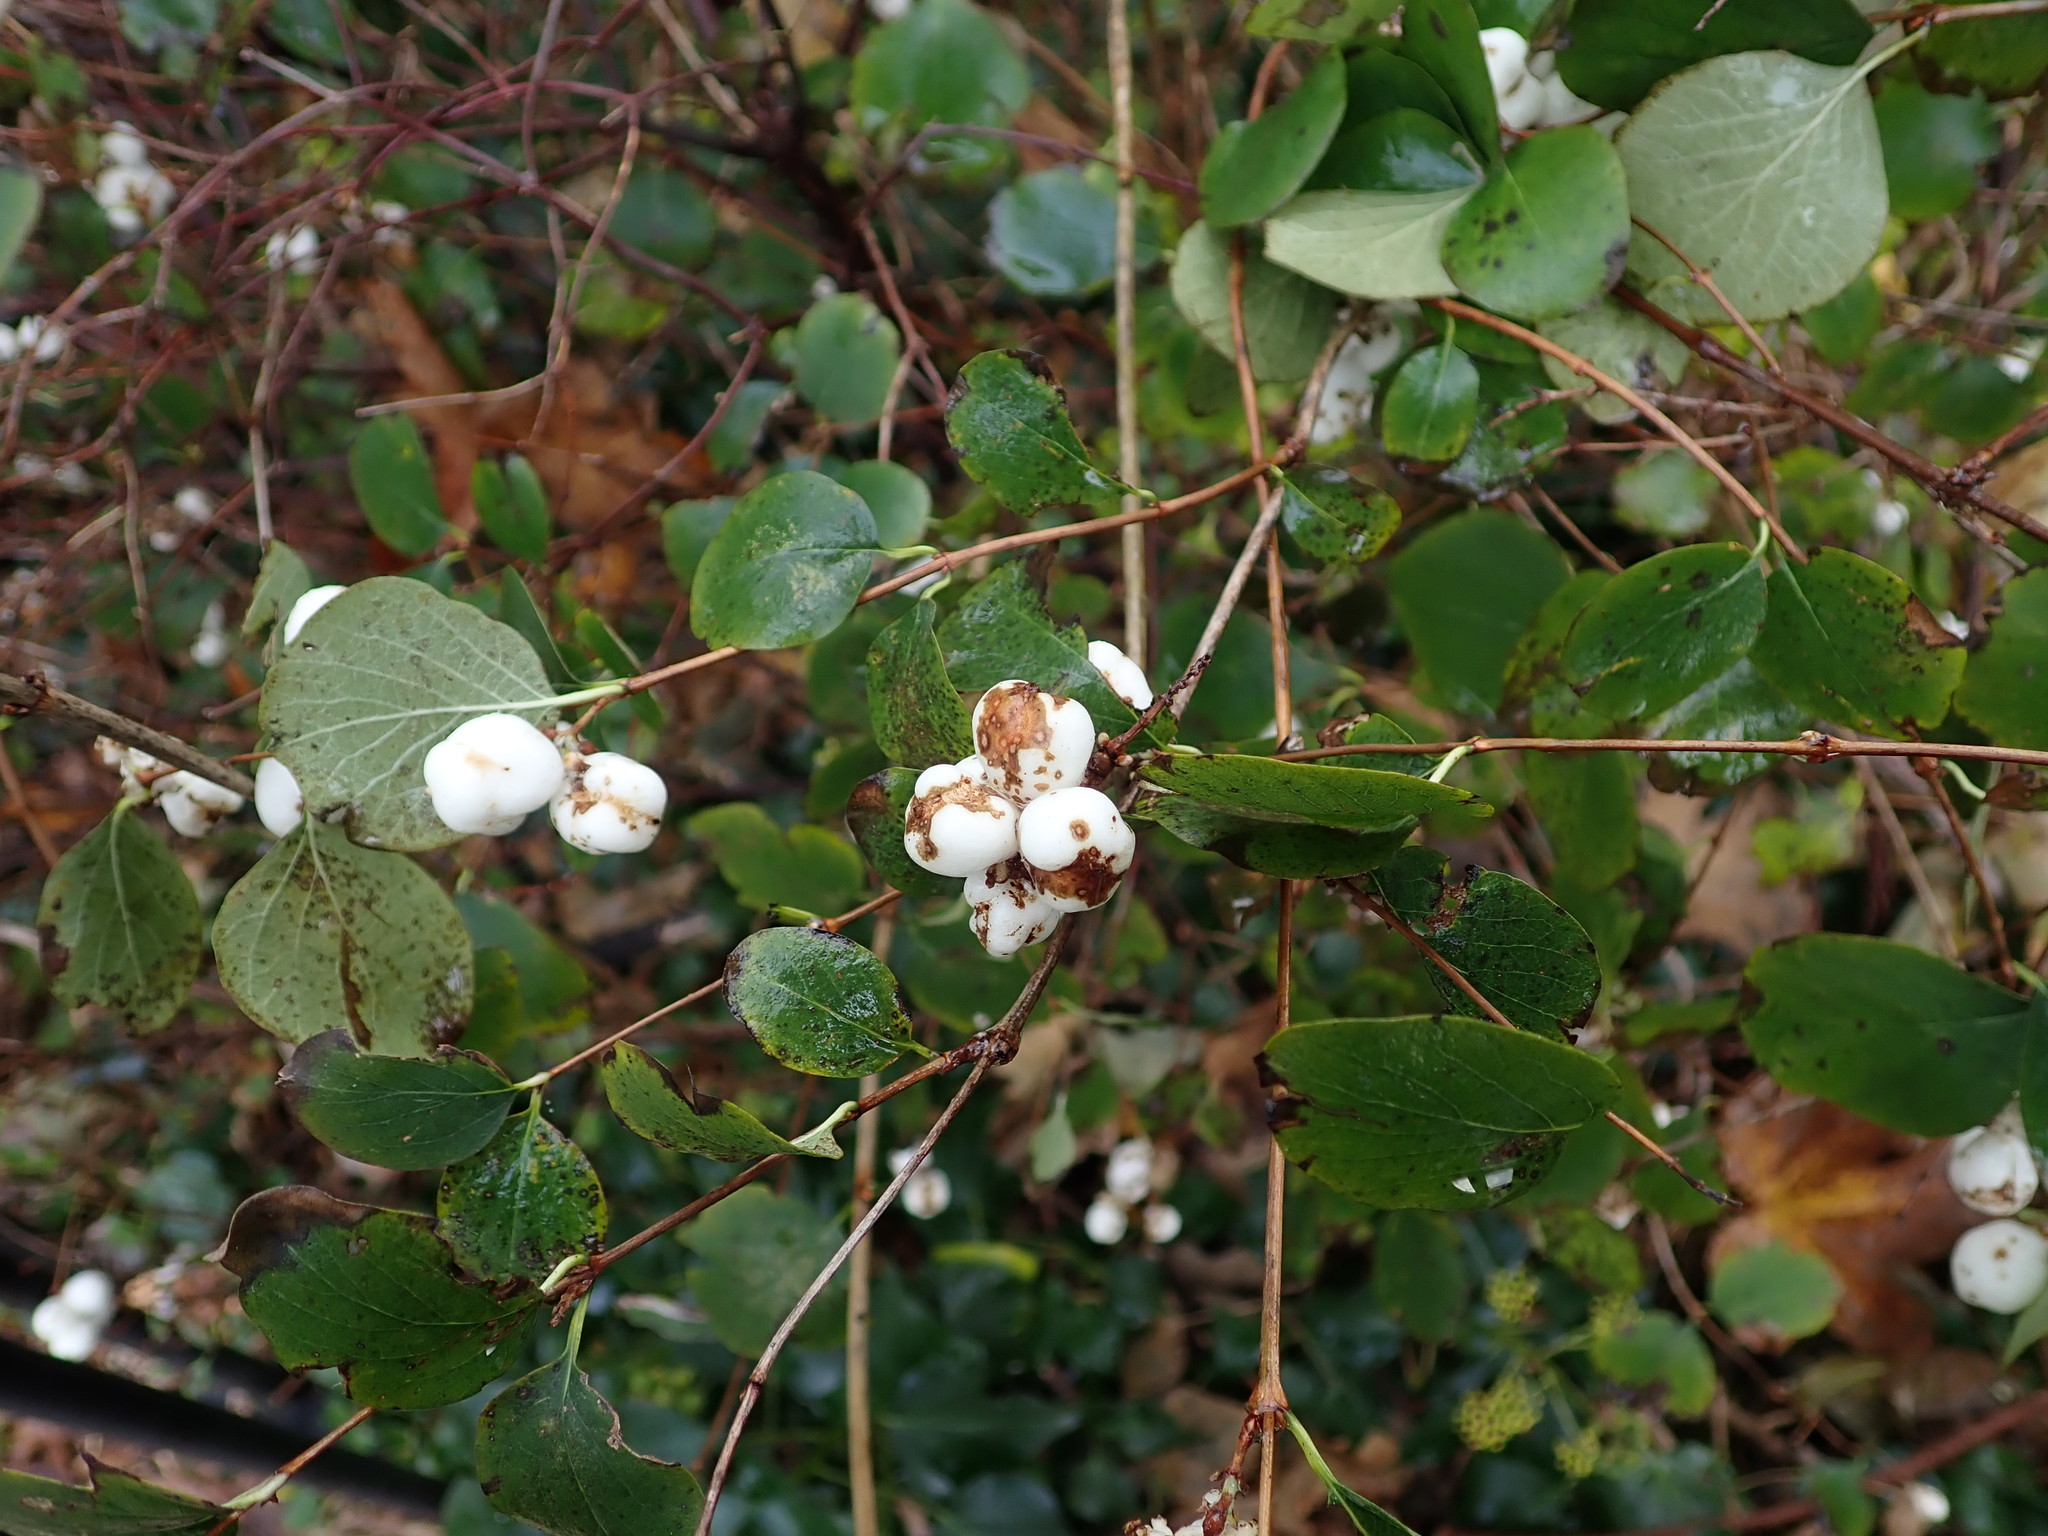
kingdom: Plantae
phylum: Tracheophyta
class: Magnoliopsida
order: Dipsacales
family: Caprifoliaceae
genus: Symphoricarpos
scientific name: Symphoricarpos albus
